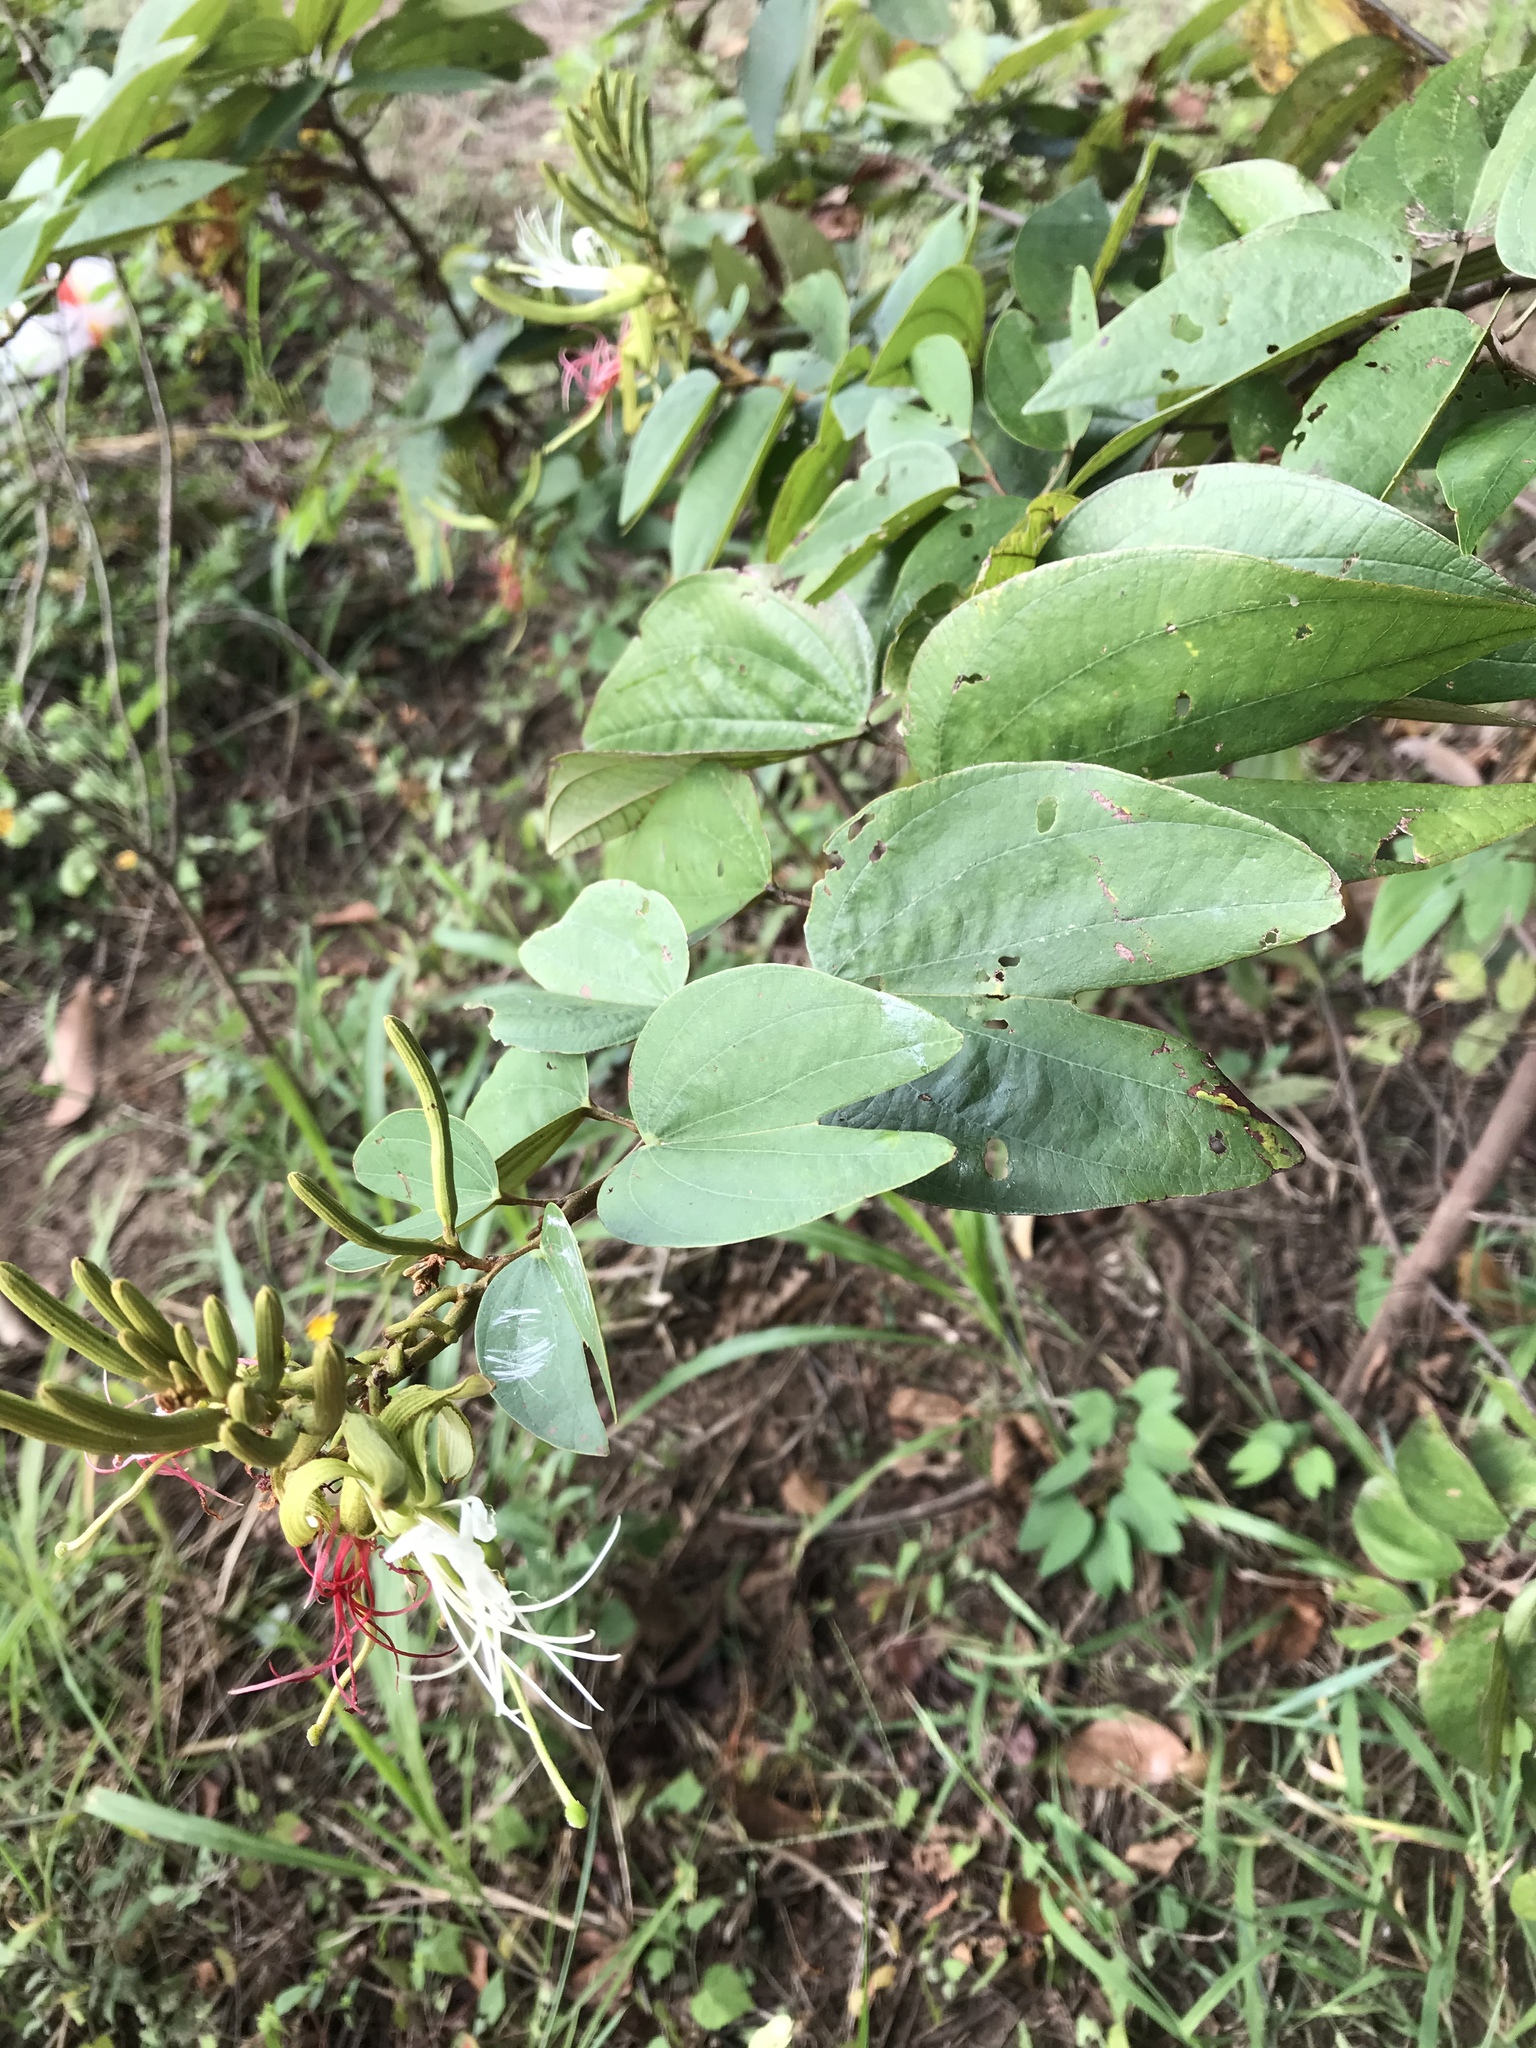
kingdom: Plantae
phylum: Tracheophyta
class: Magnoliopsida
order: Fabales
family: Fabaceae
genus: Bauhinia
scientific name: Bauhinia ungulata
